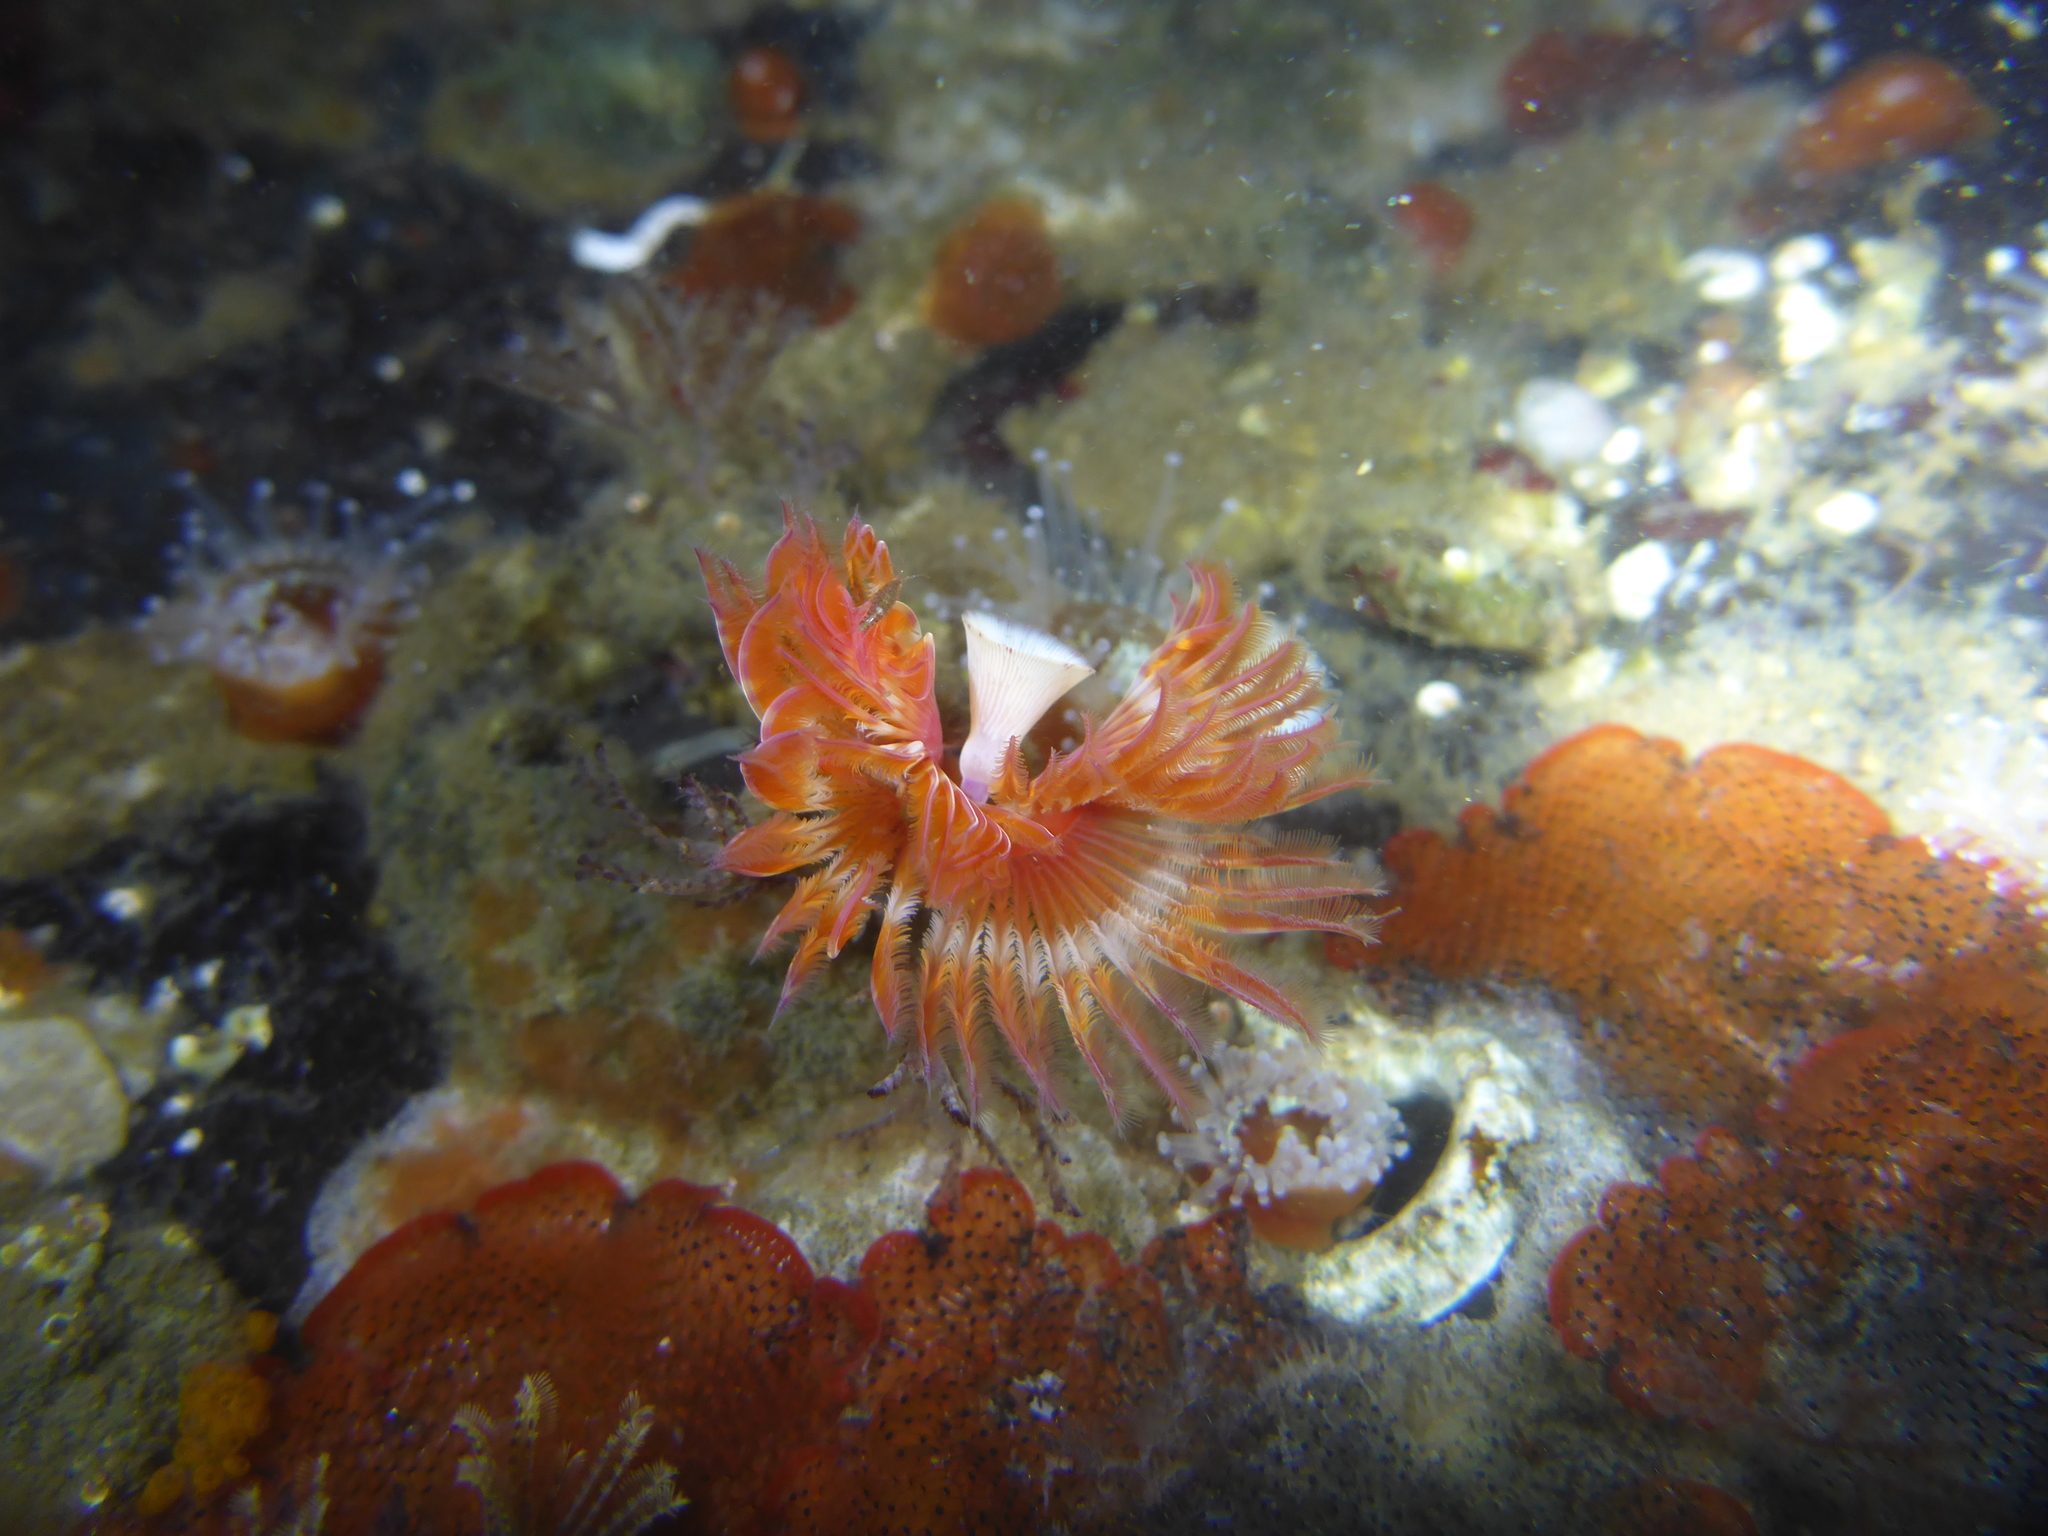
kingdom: Animalia
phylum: Annelida
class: Polychaeta
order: Sabellida
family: Serpulidae
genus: Serpula
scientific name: Serpula columbiana
